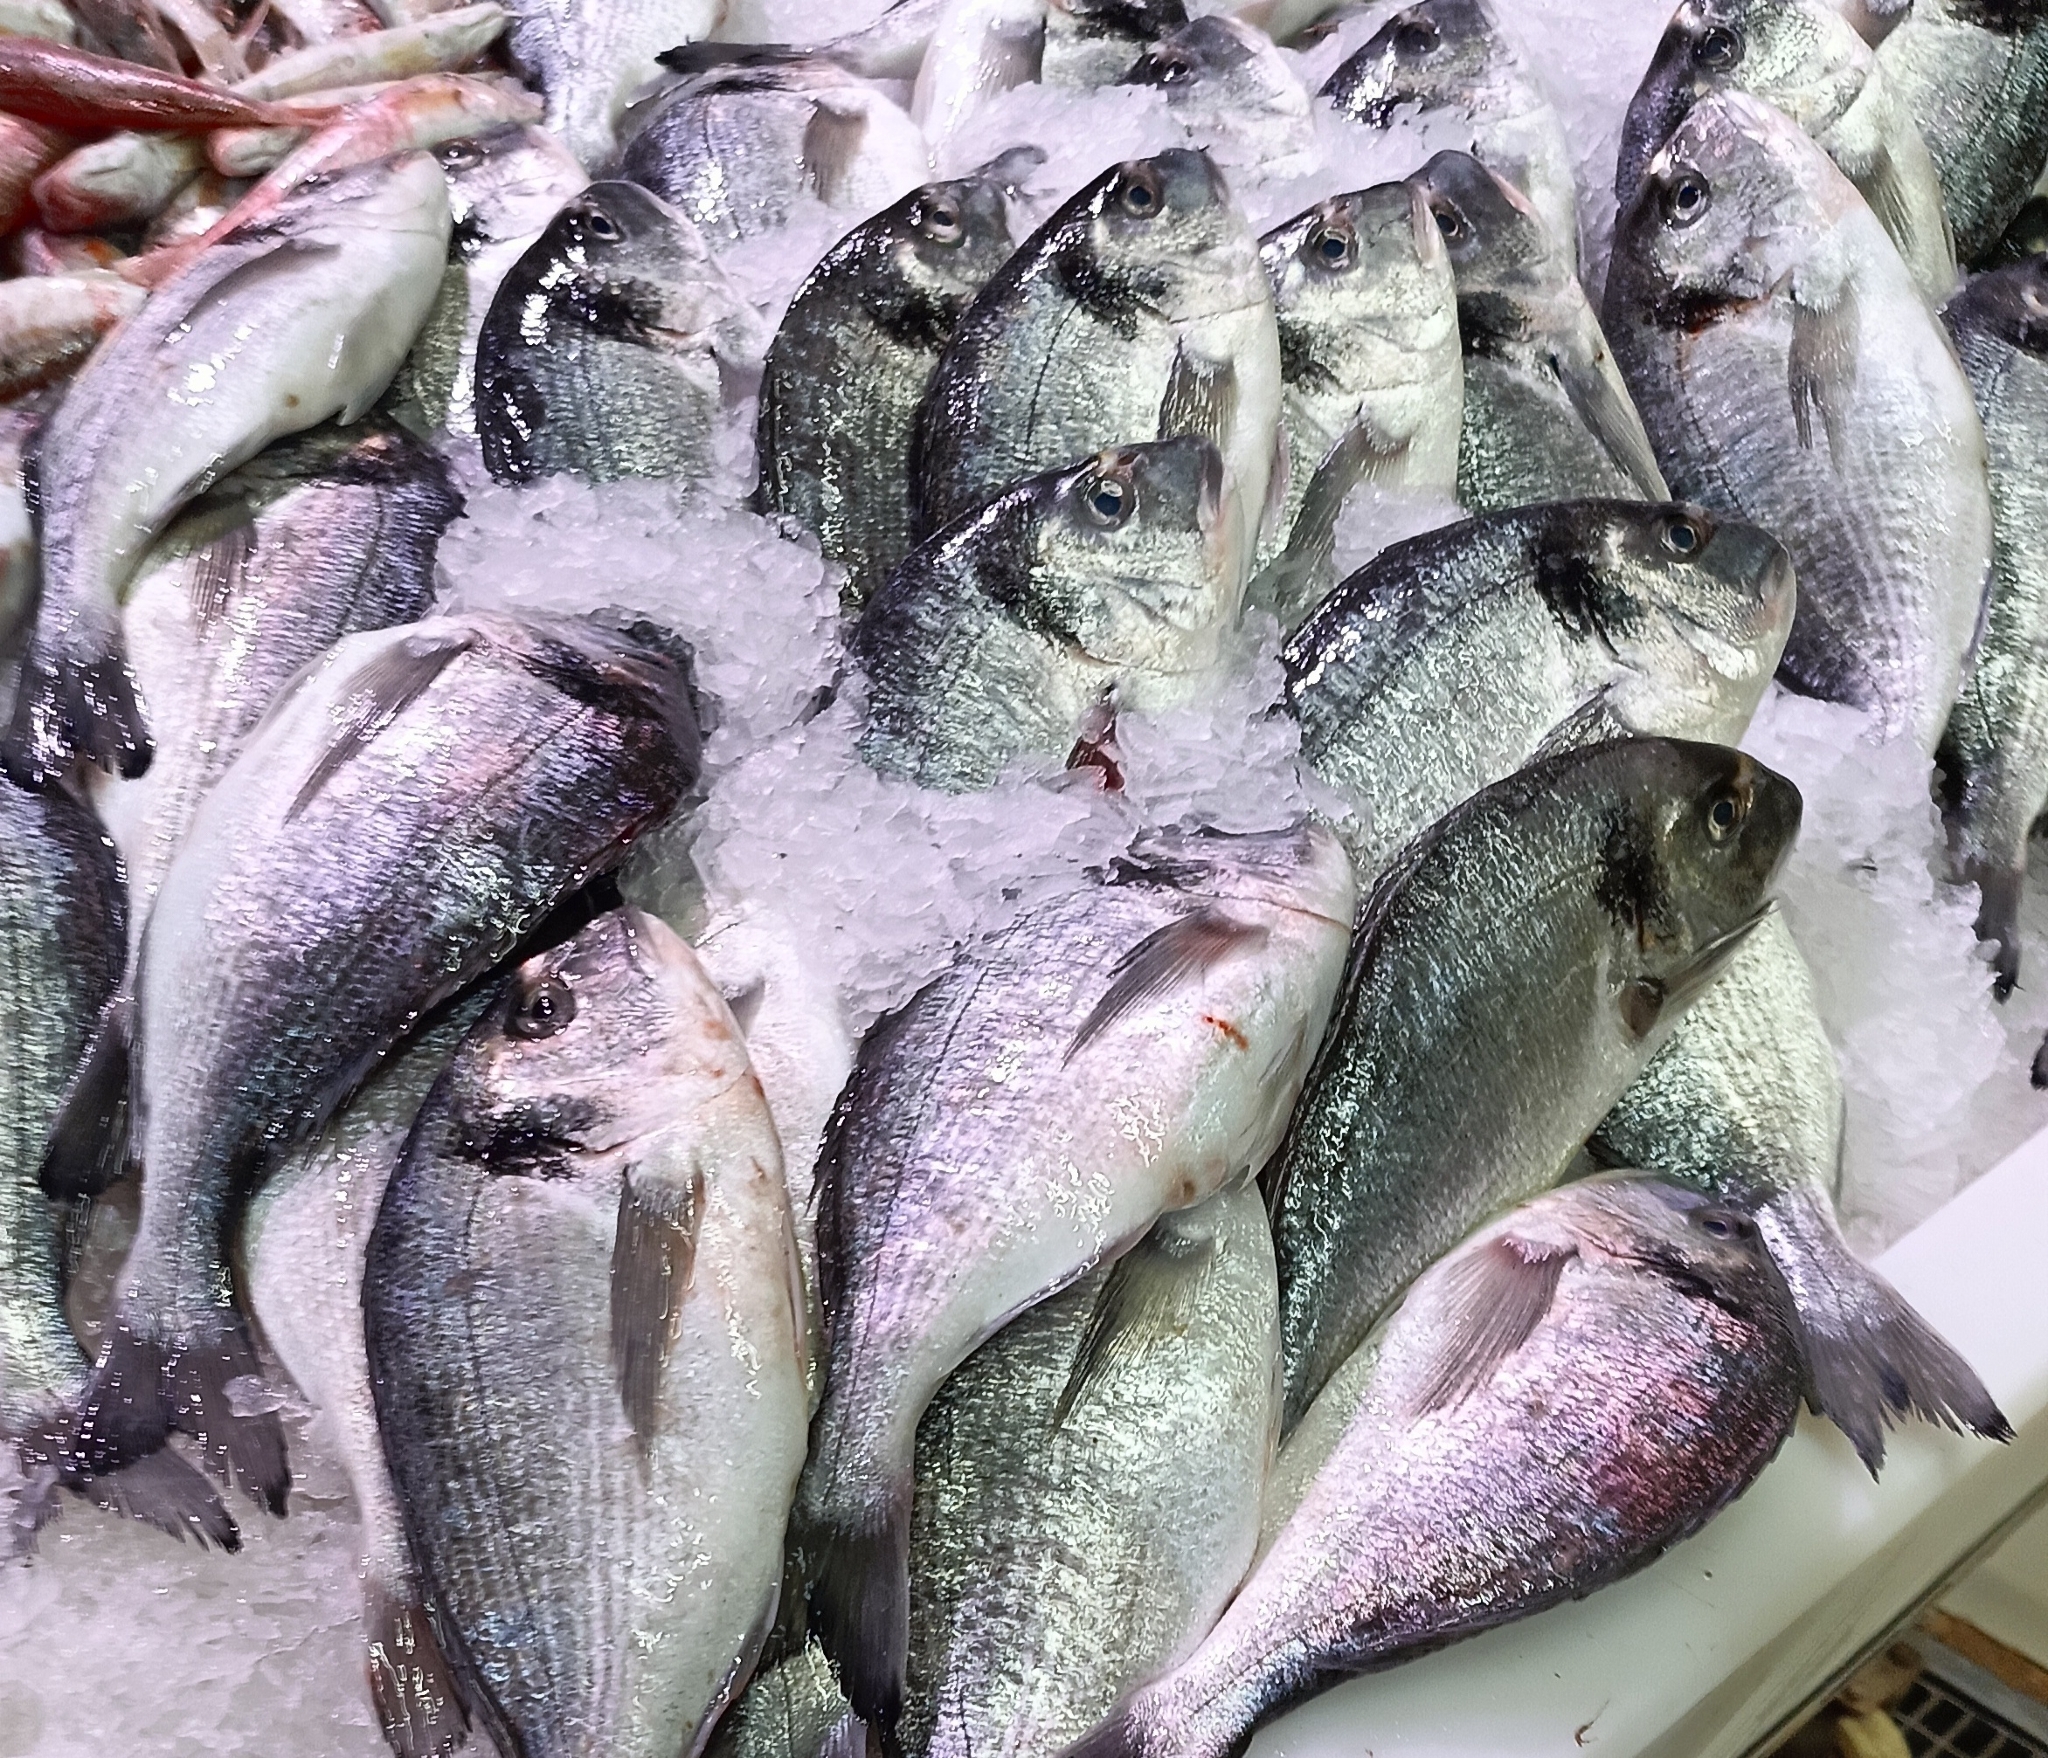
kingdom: Animalia
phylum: Chordata
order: Perciformes
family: Sparidae
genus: Sparus
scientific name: Sparus aurata
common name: Gilthead
